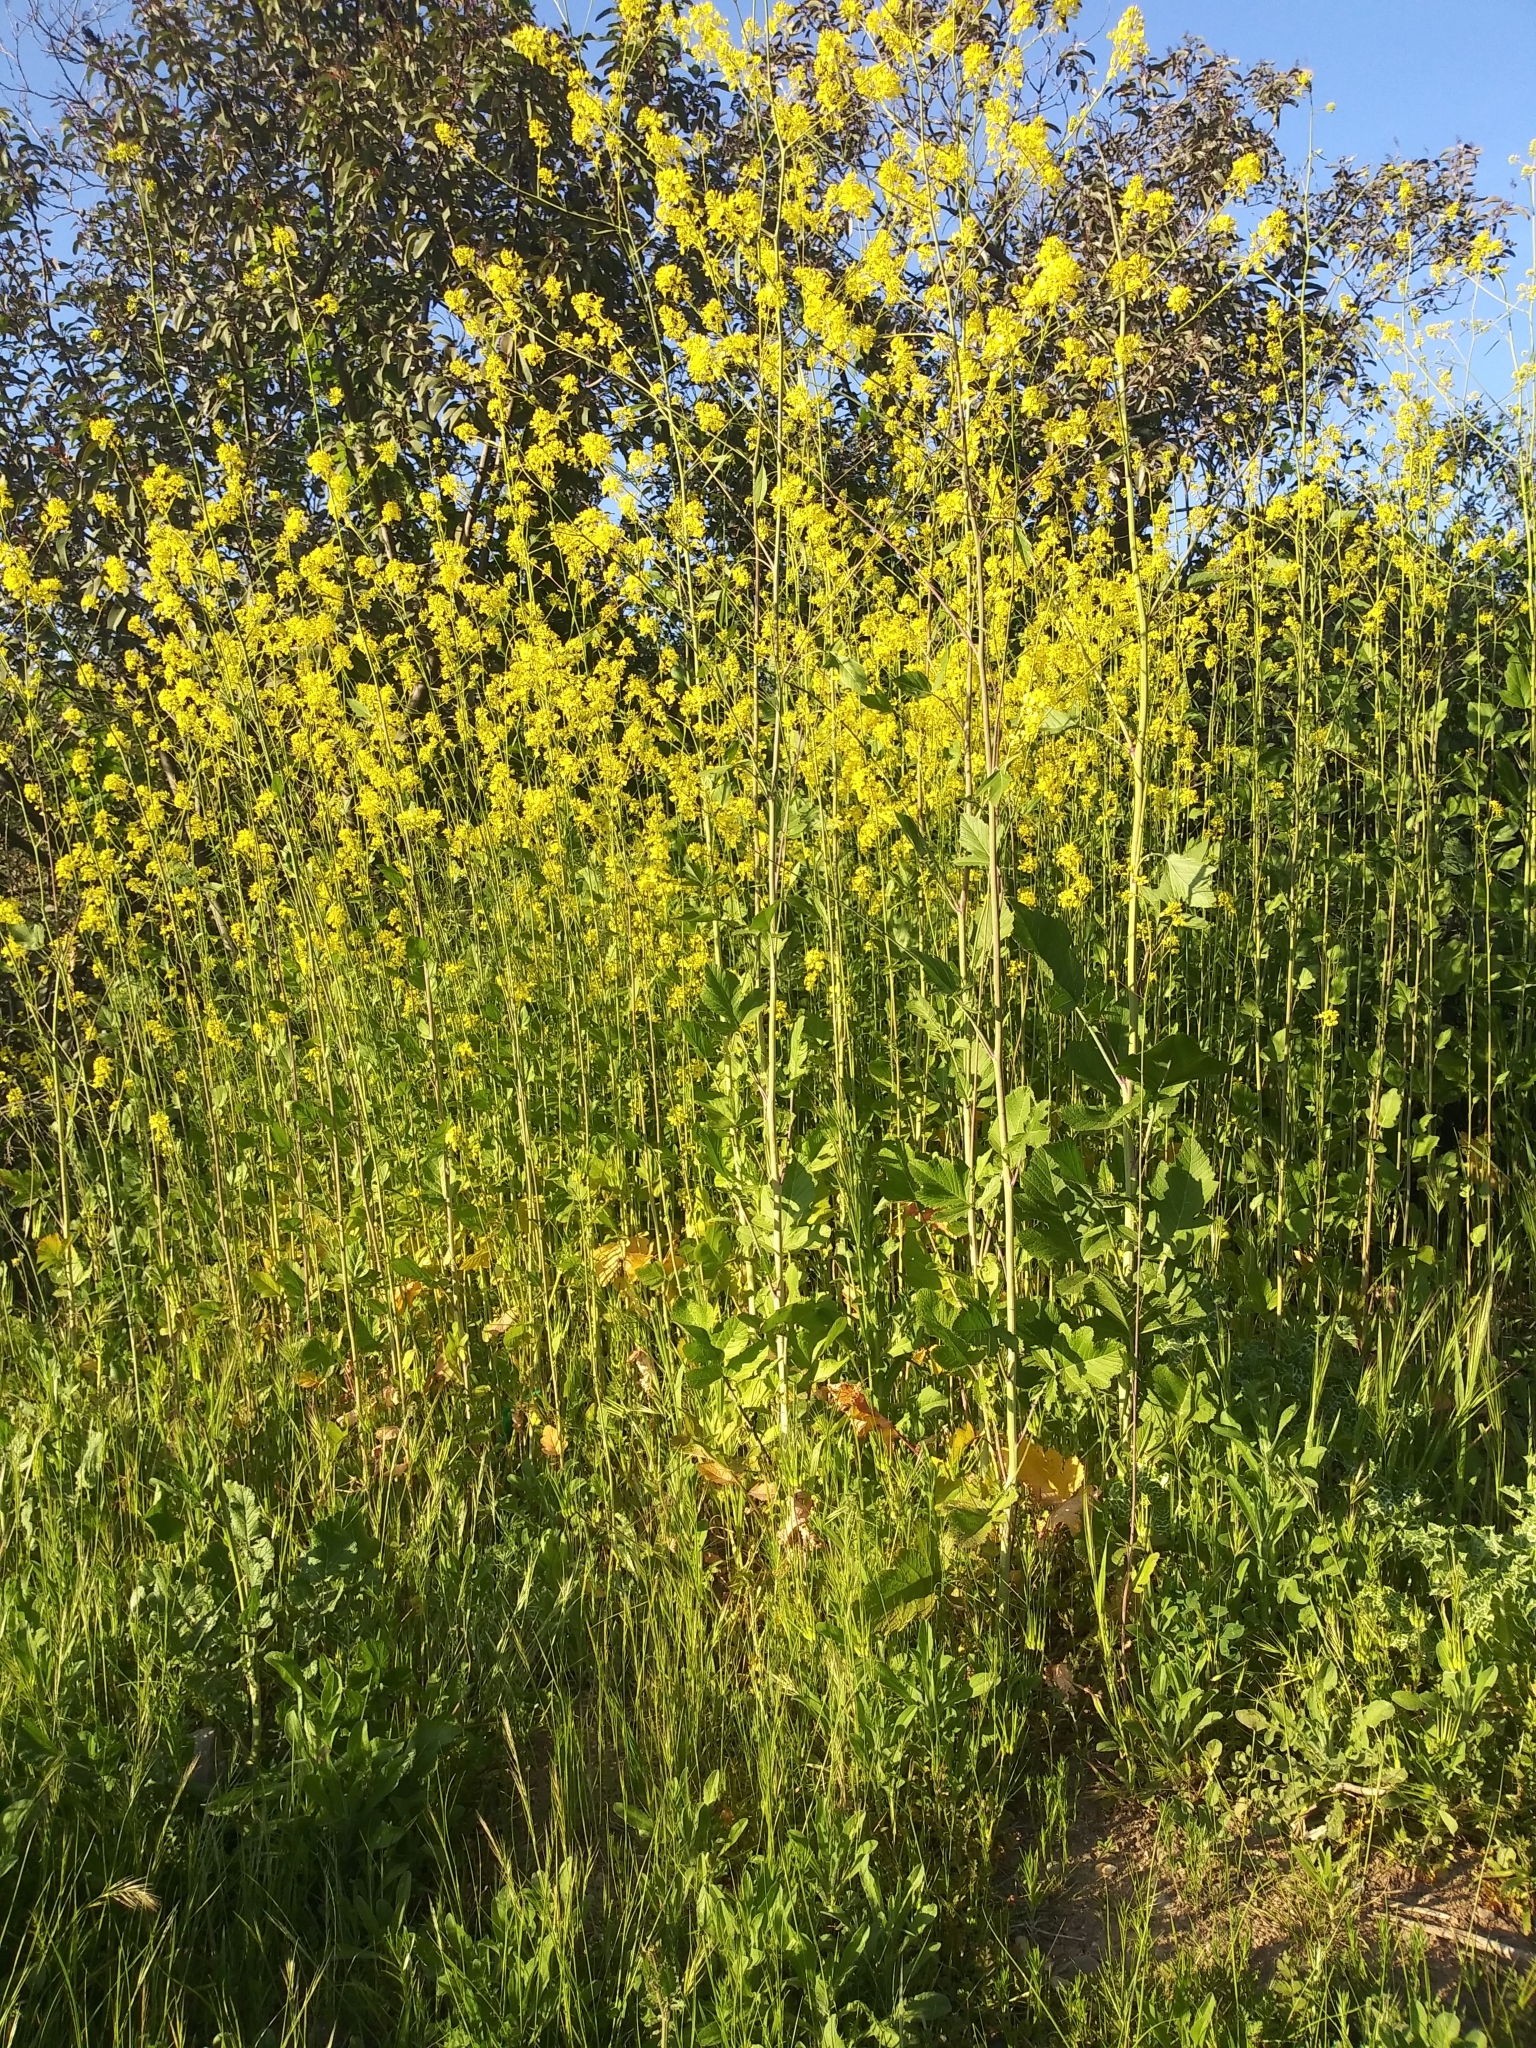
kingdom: Plantae
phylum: Tracheophyta
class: Magnoliopsida
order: Brassicales
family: Brassicaceae
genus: Brassica
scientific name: Brassica nigra
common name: Black mustard
